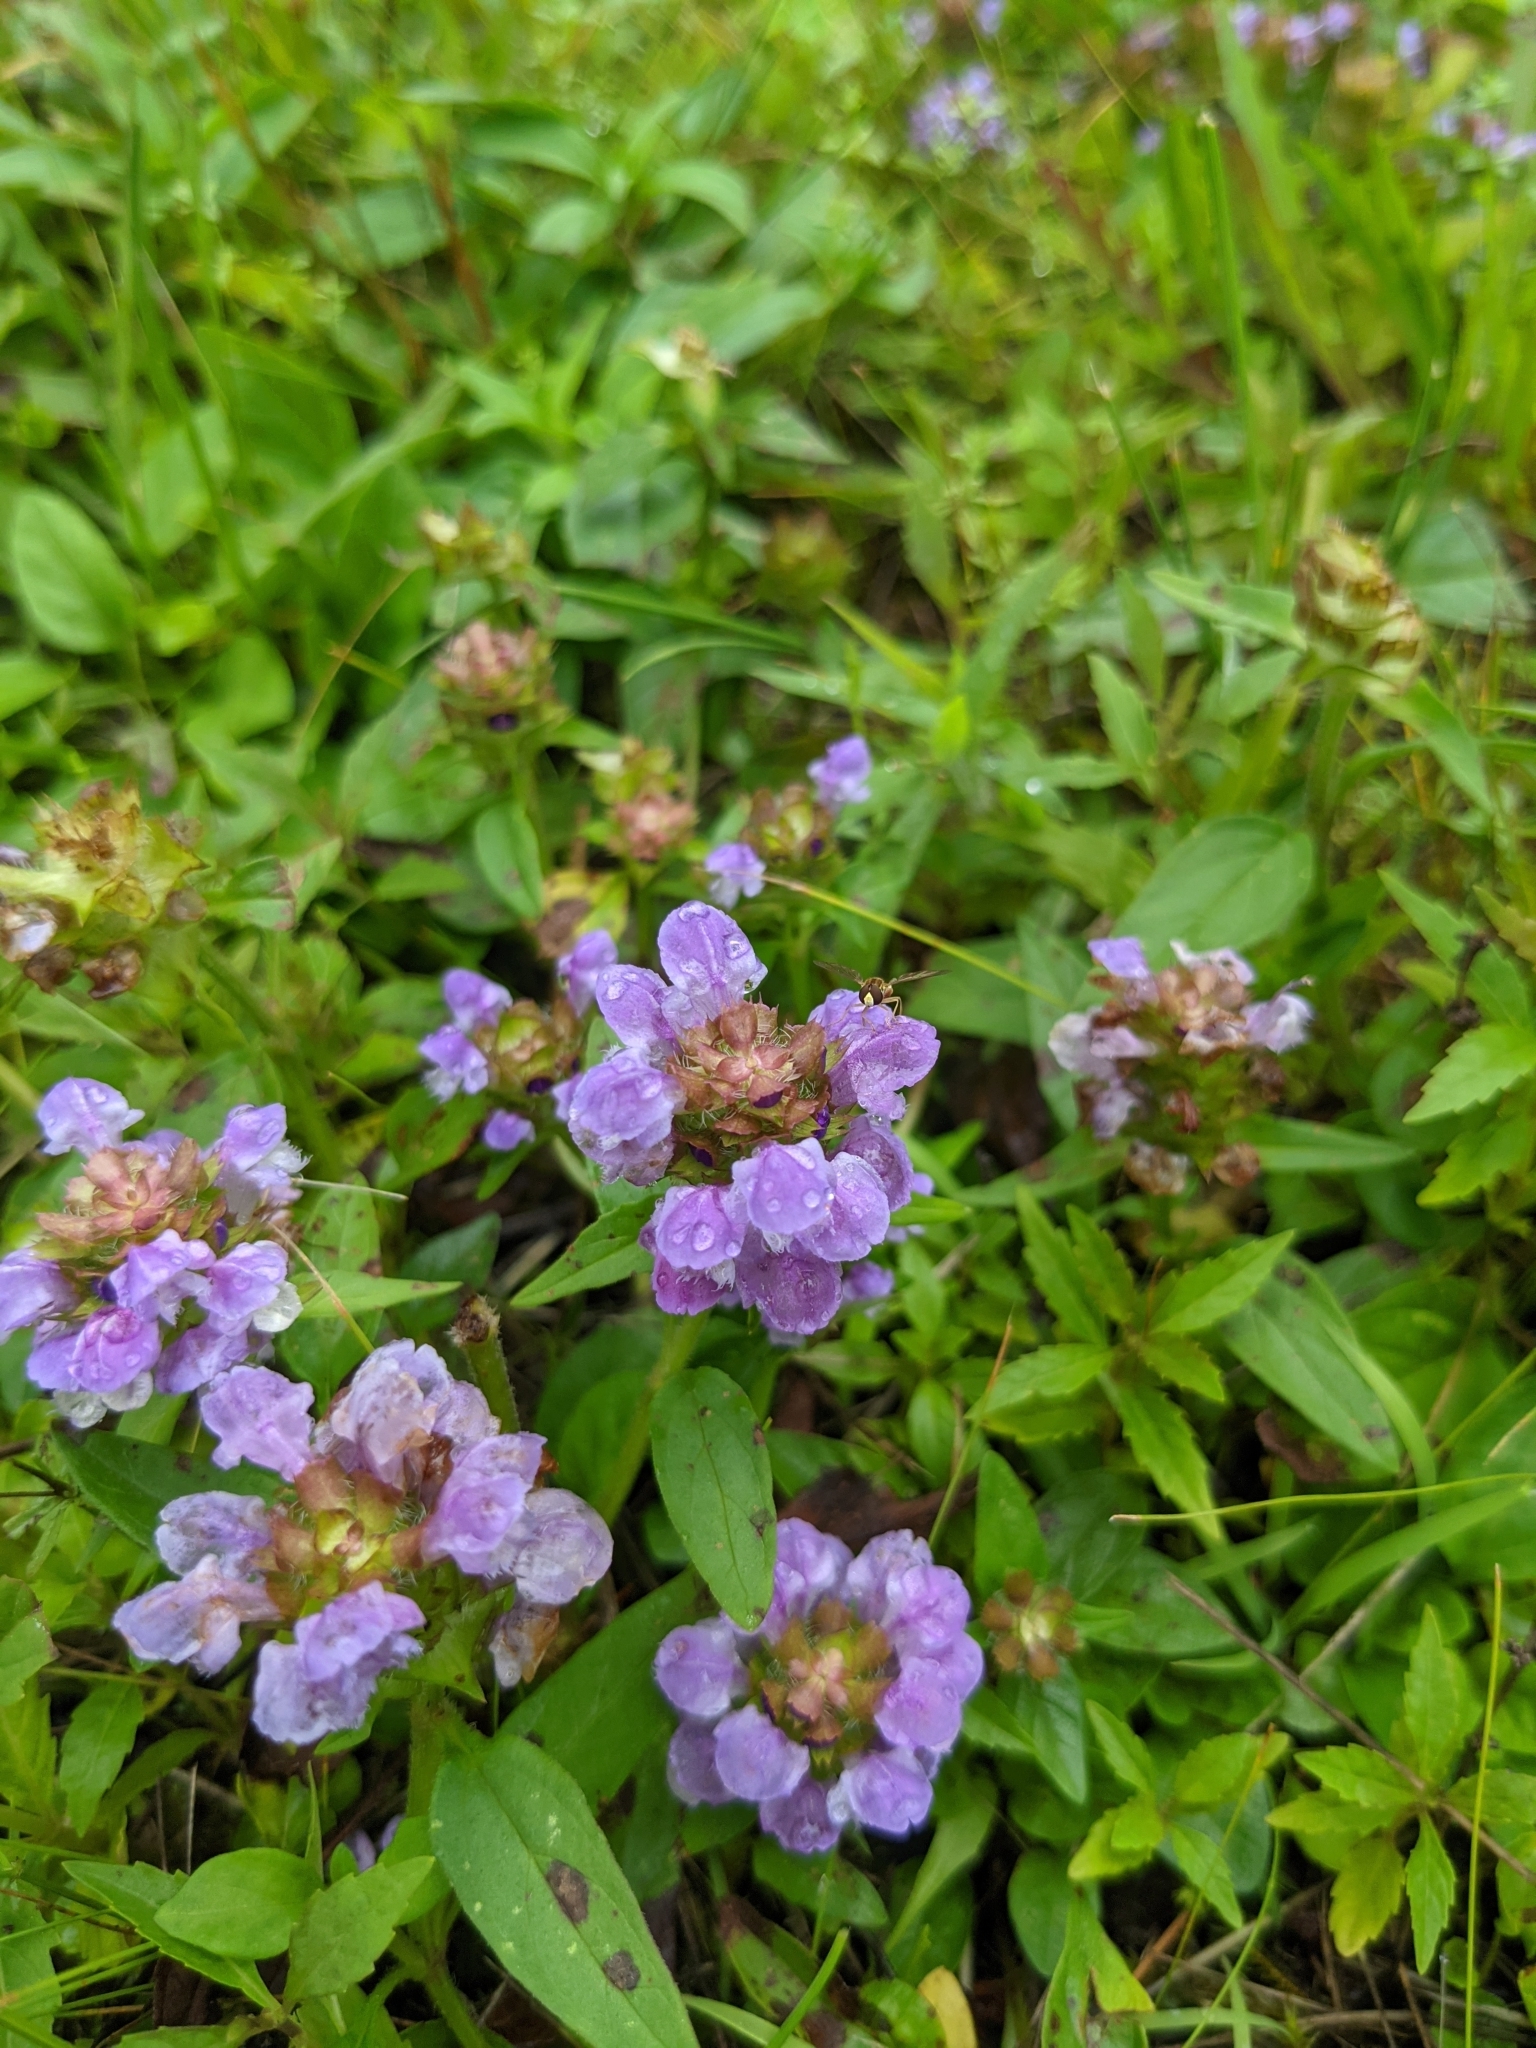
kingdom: Plantae
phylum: Tracheophyta
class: Magnoliopsida
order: Lamiales
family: Lamiaceae
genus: Prunella
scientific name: Prunella vulgaris
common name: Heal-all
